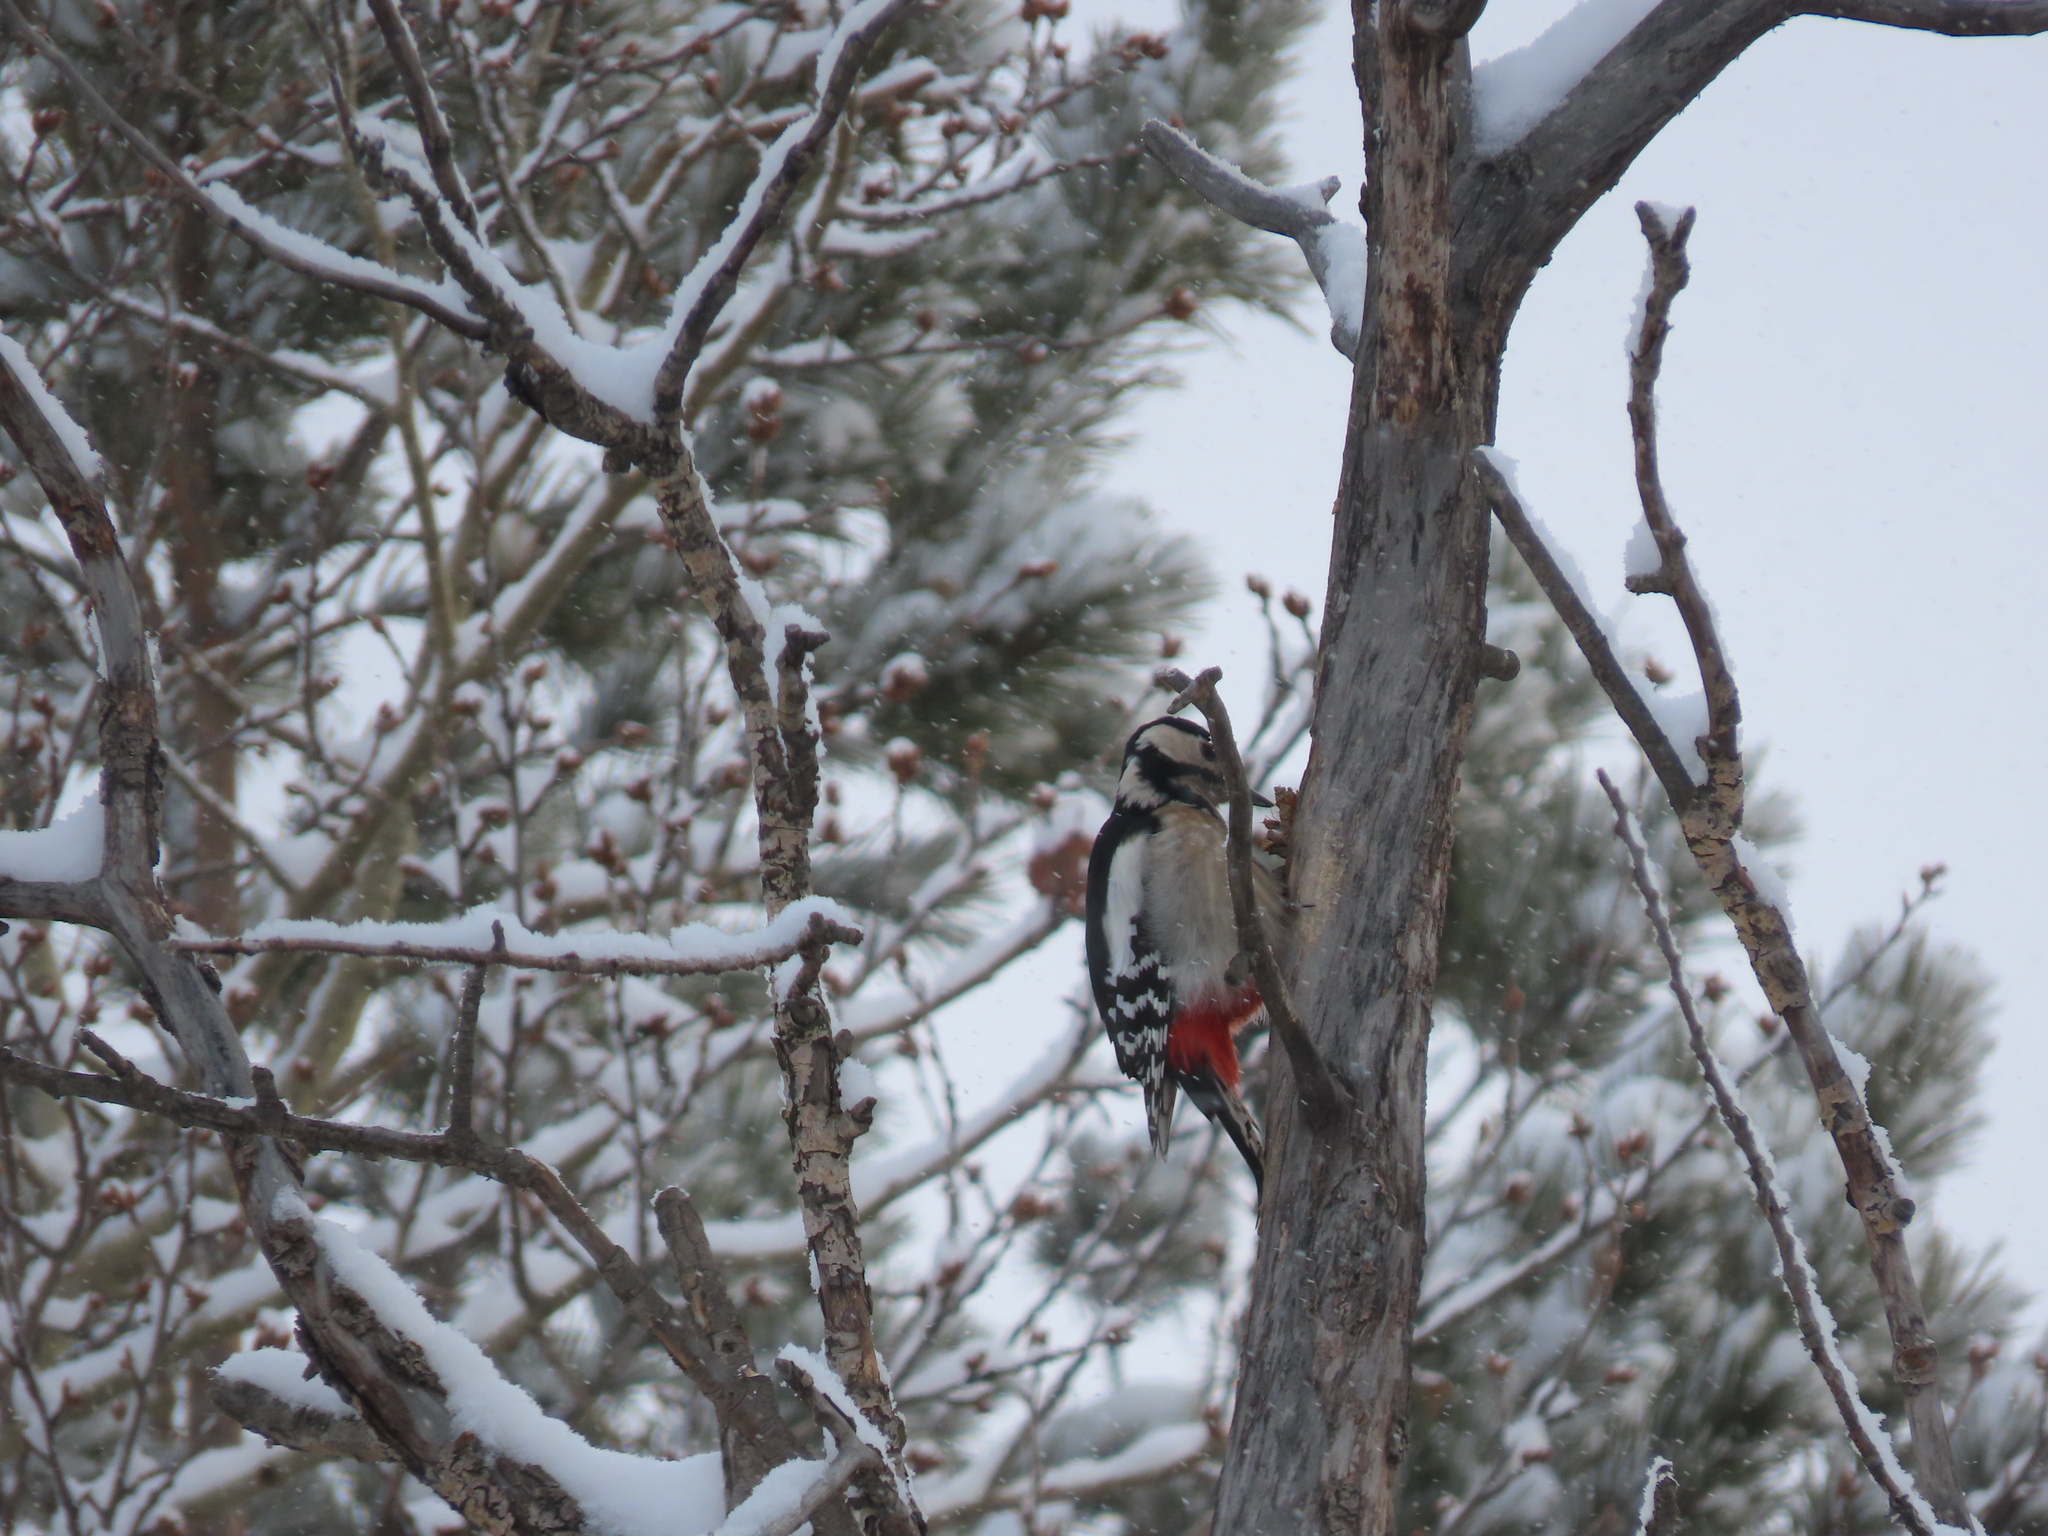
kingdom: Animalia
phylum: Chordata
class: Aves
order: Piciformes
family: Picidae
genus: Dendrocopos
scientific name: Dendrocopos major
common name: Great spotted woodpecker
